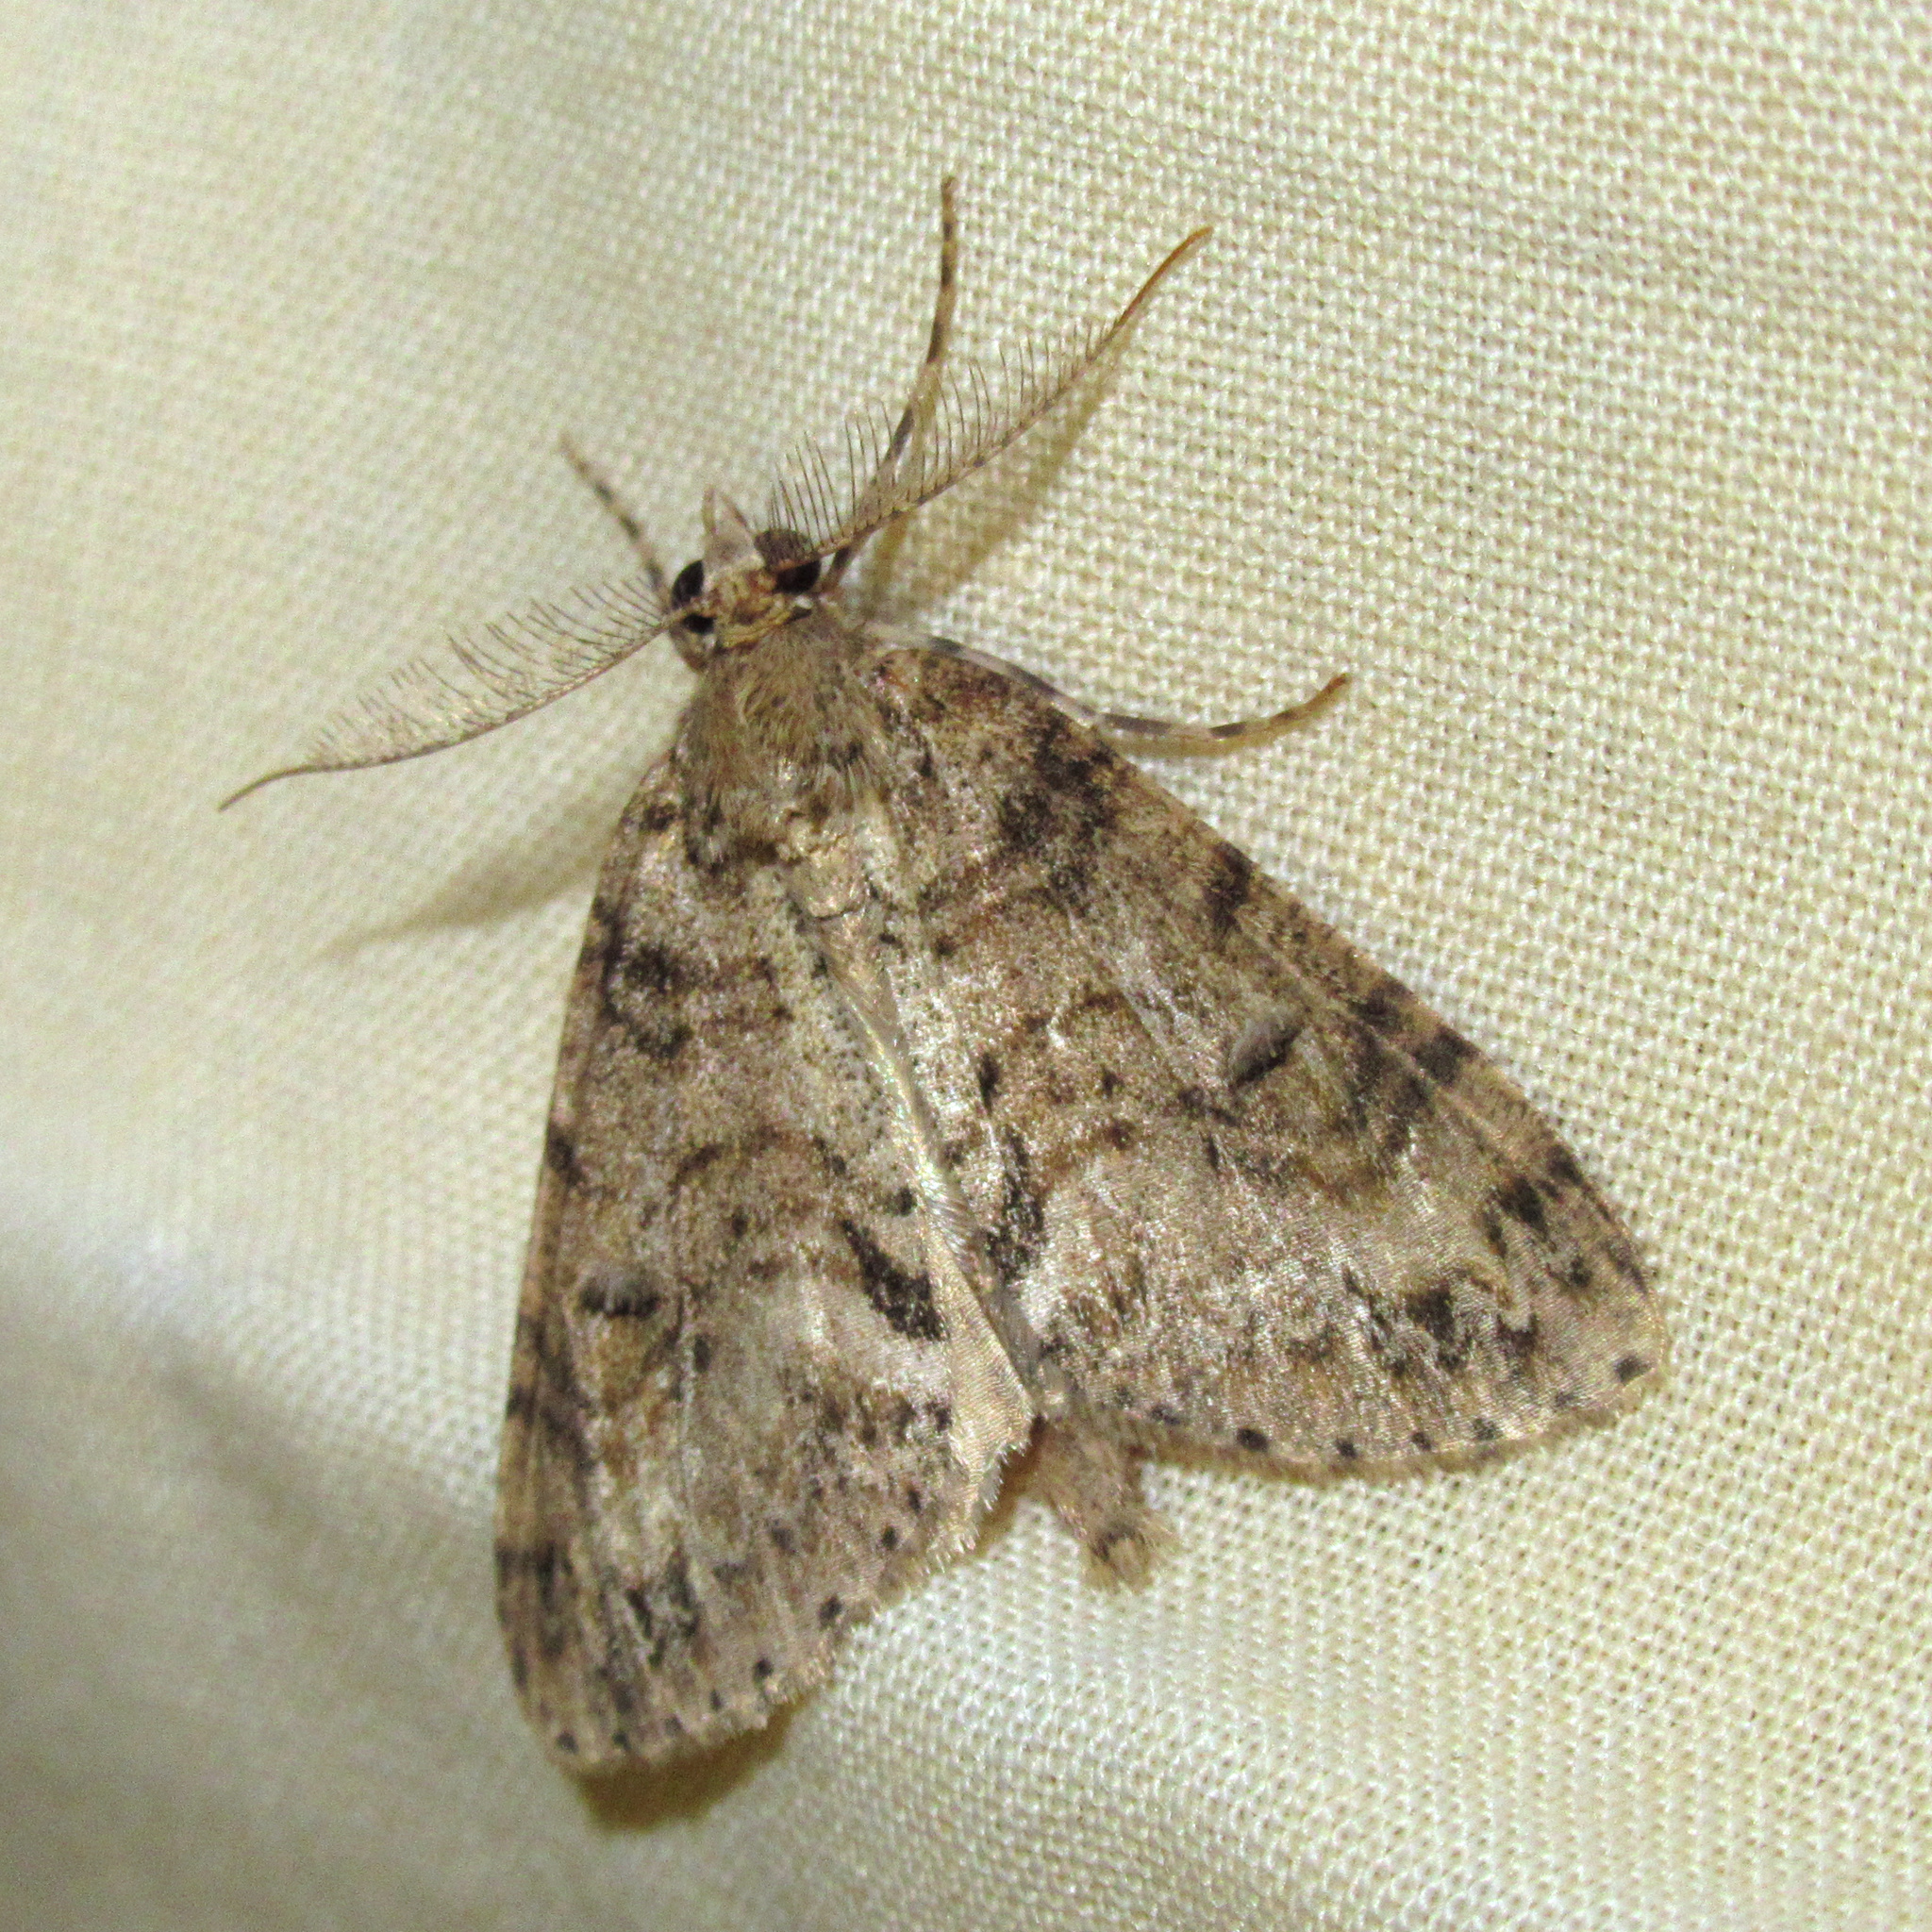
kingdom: Animalia
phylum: Arthropoda
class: Insecta
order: Lepidoptera
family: Geometridae
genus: Pseudocoremia
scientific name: Pseudocoremia suavis
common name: Common forest looper
